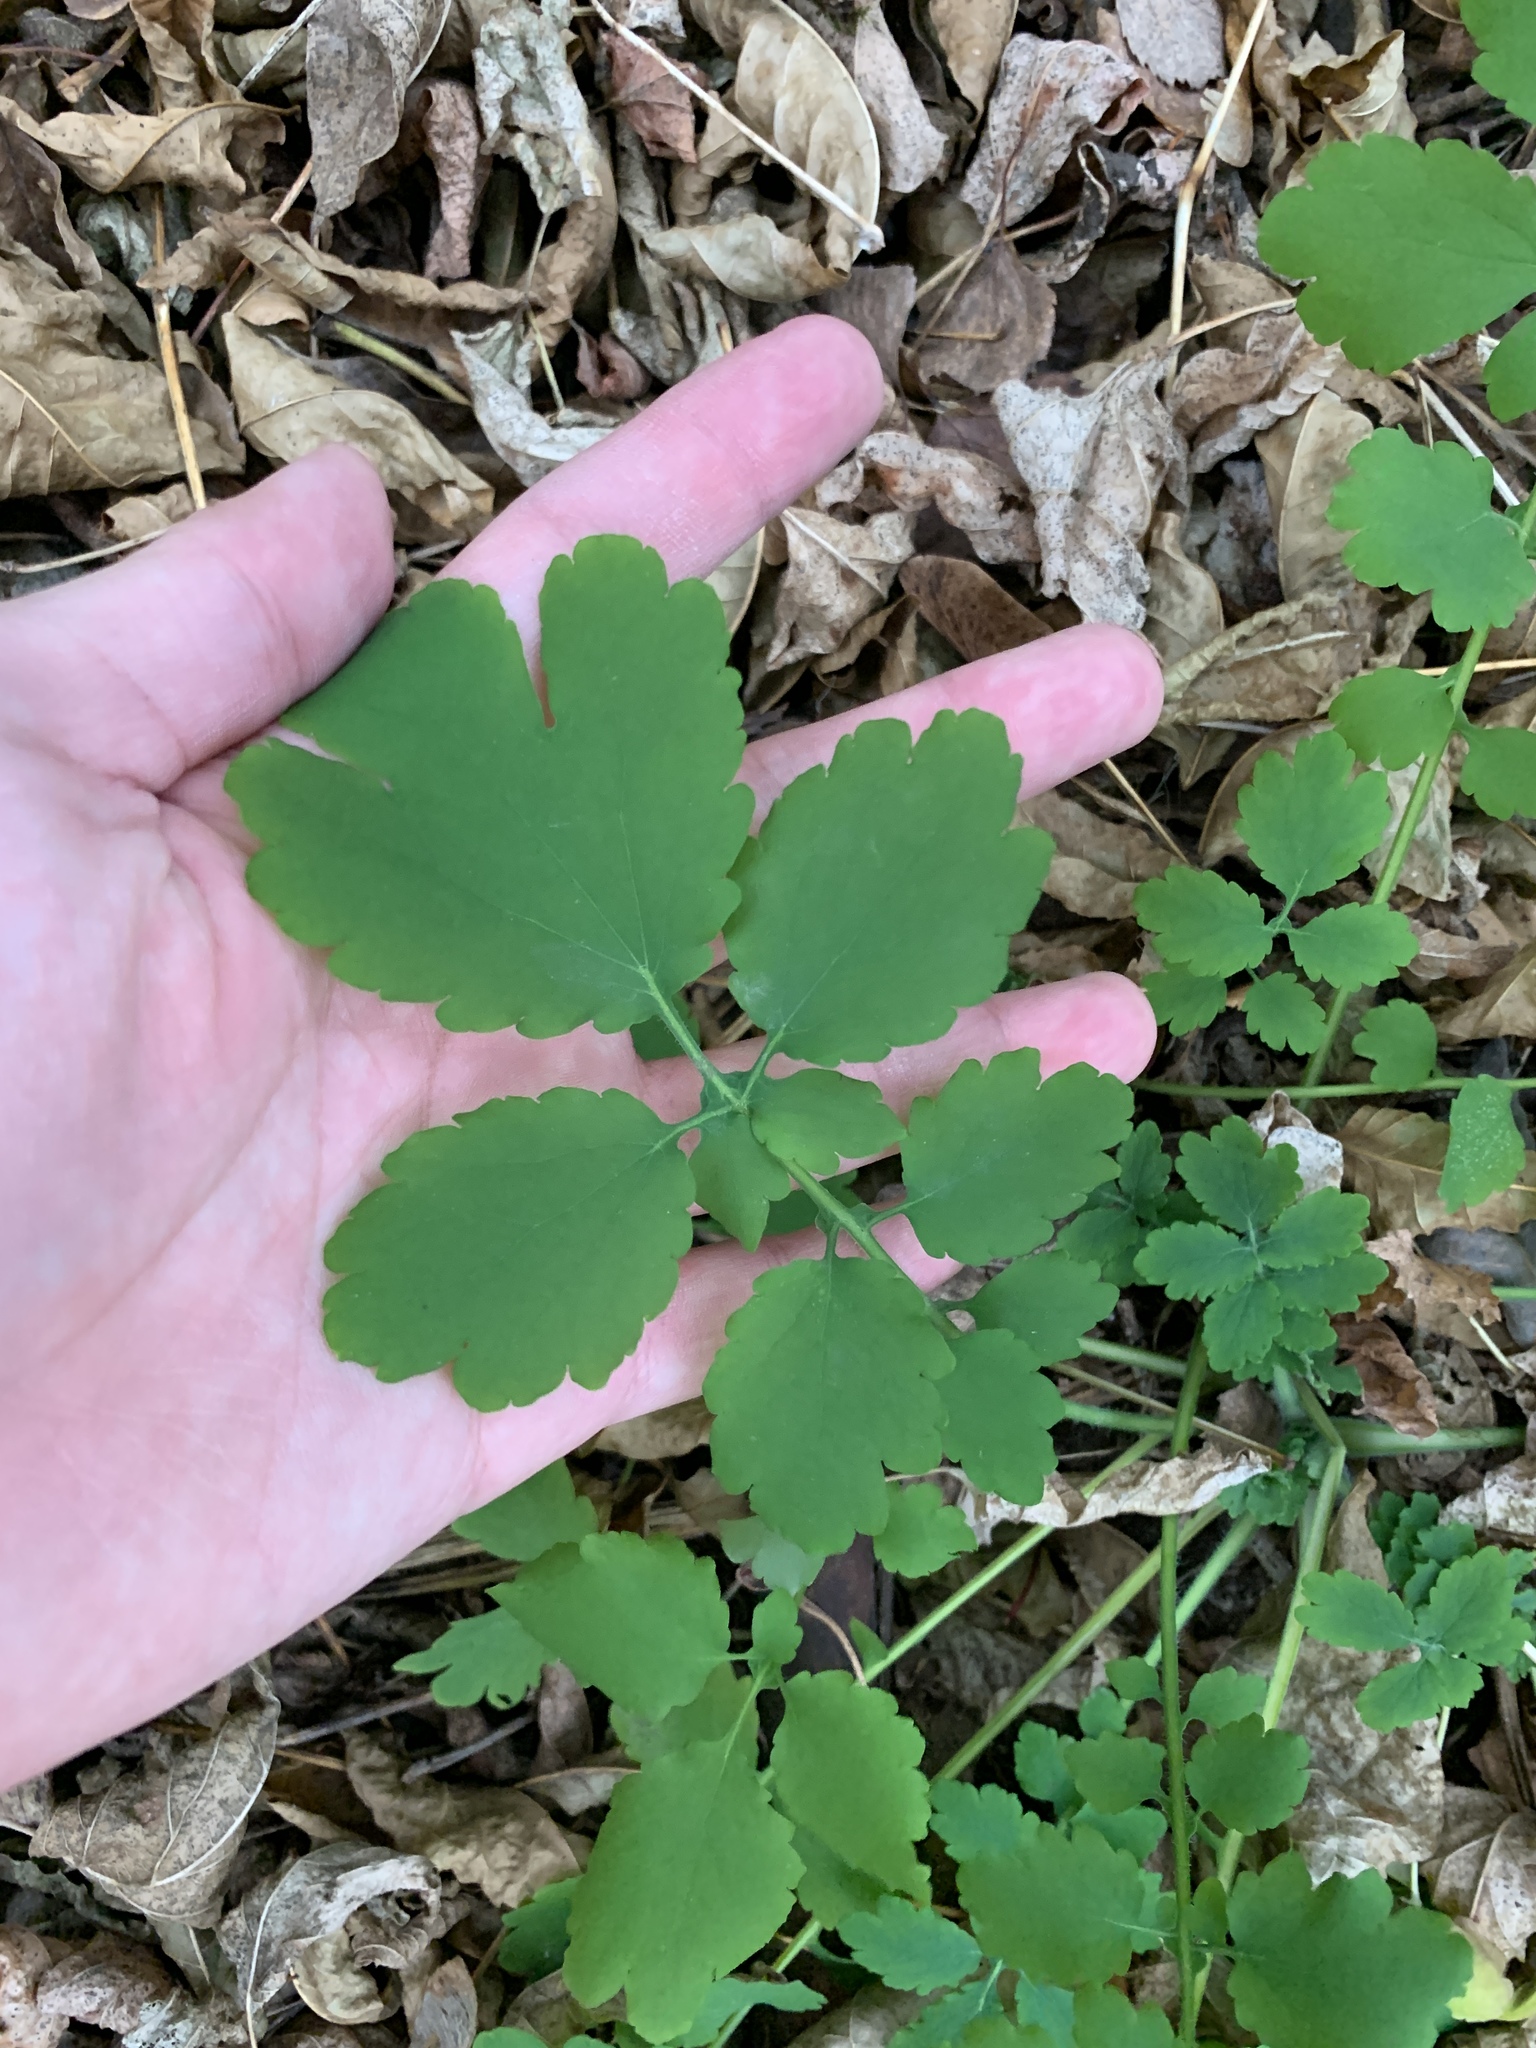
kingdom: Plantae
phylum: Tracheophyta
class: Magnoliopsida
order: Ranunculales
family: Papaveraceae
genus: Chelidonium
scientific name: Chelidonium majus
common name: Greater celandine
